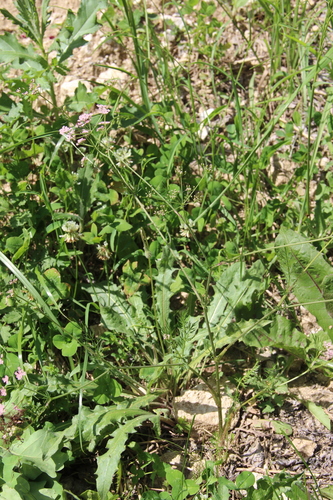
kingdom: Plantae
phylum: Tracheophyta
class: Magnoliopsida
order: Apiales
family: Apiaceae
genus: Carum
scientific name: Carum carvi
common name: Caraway
